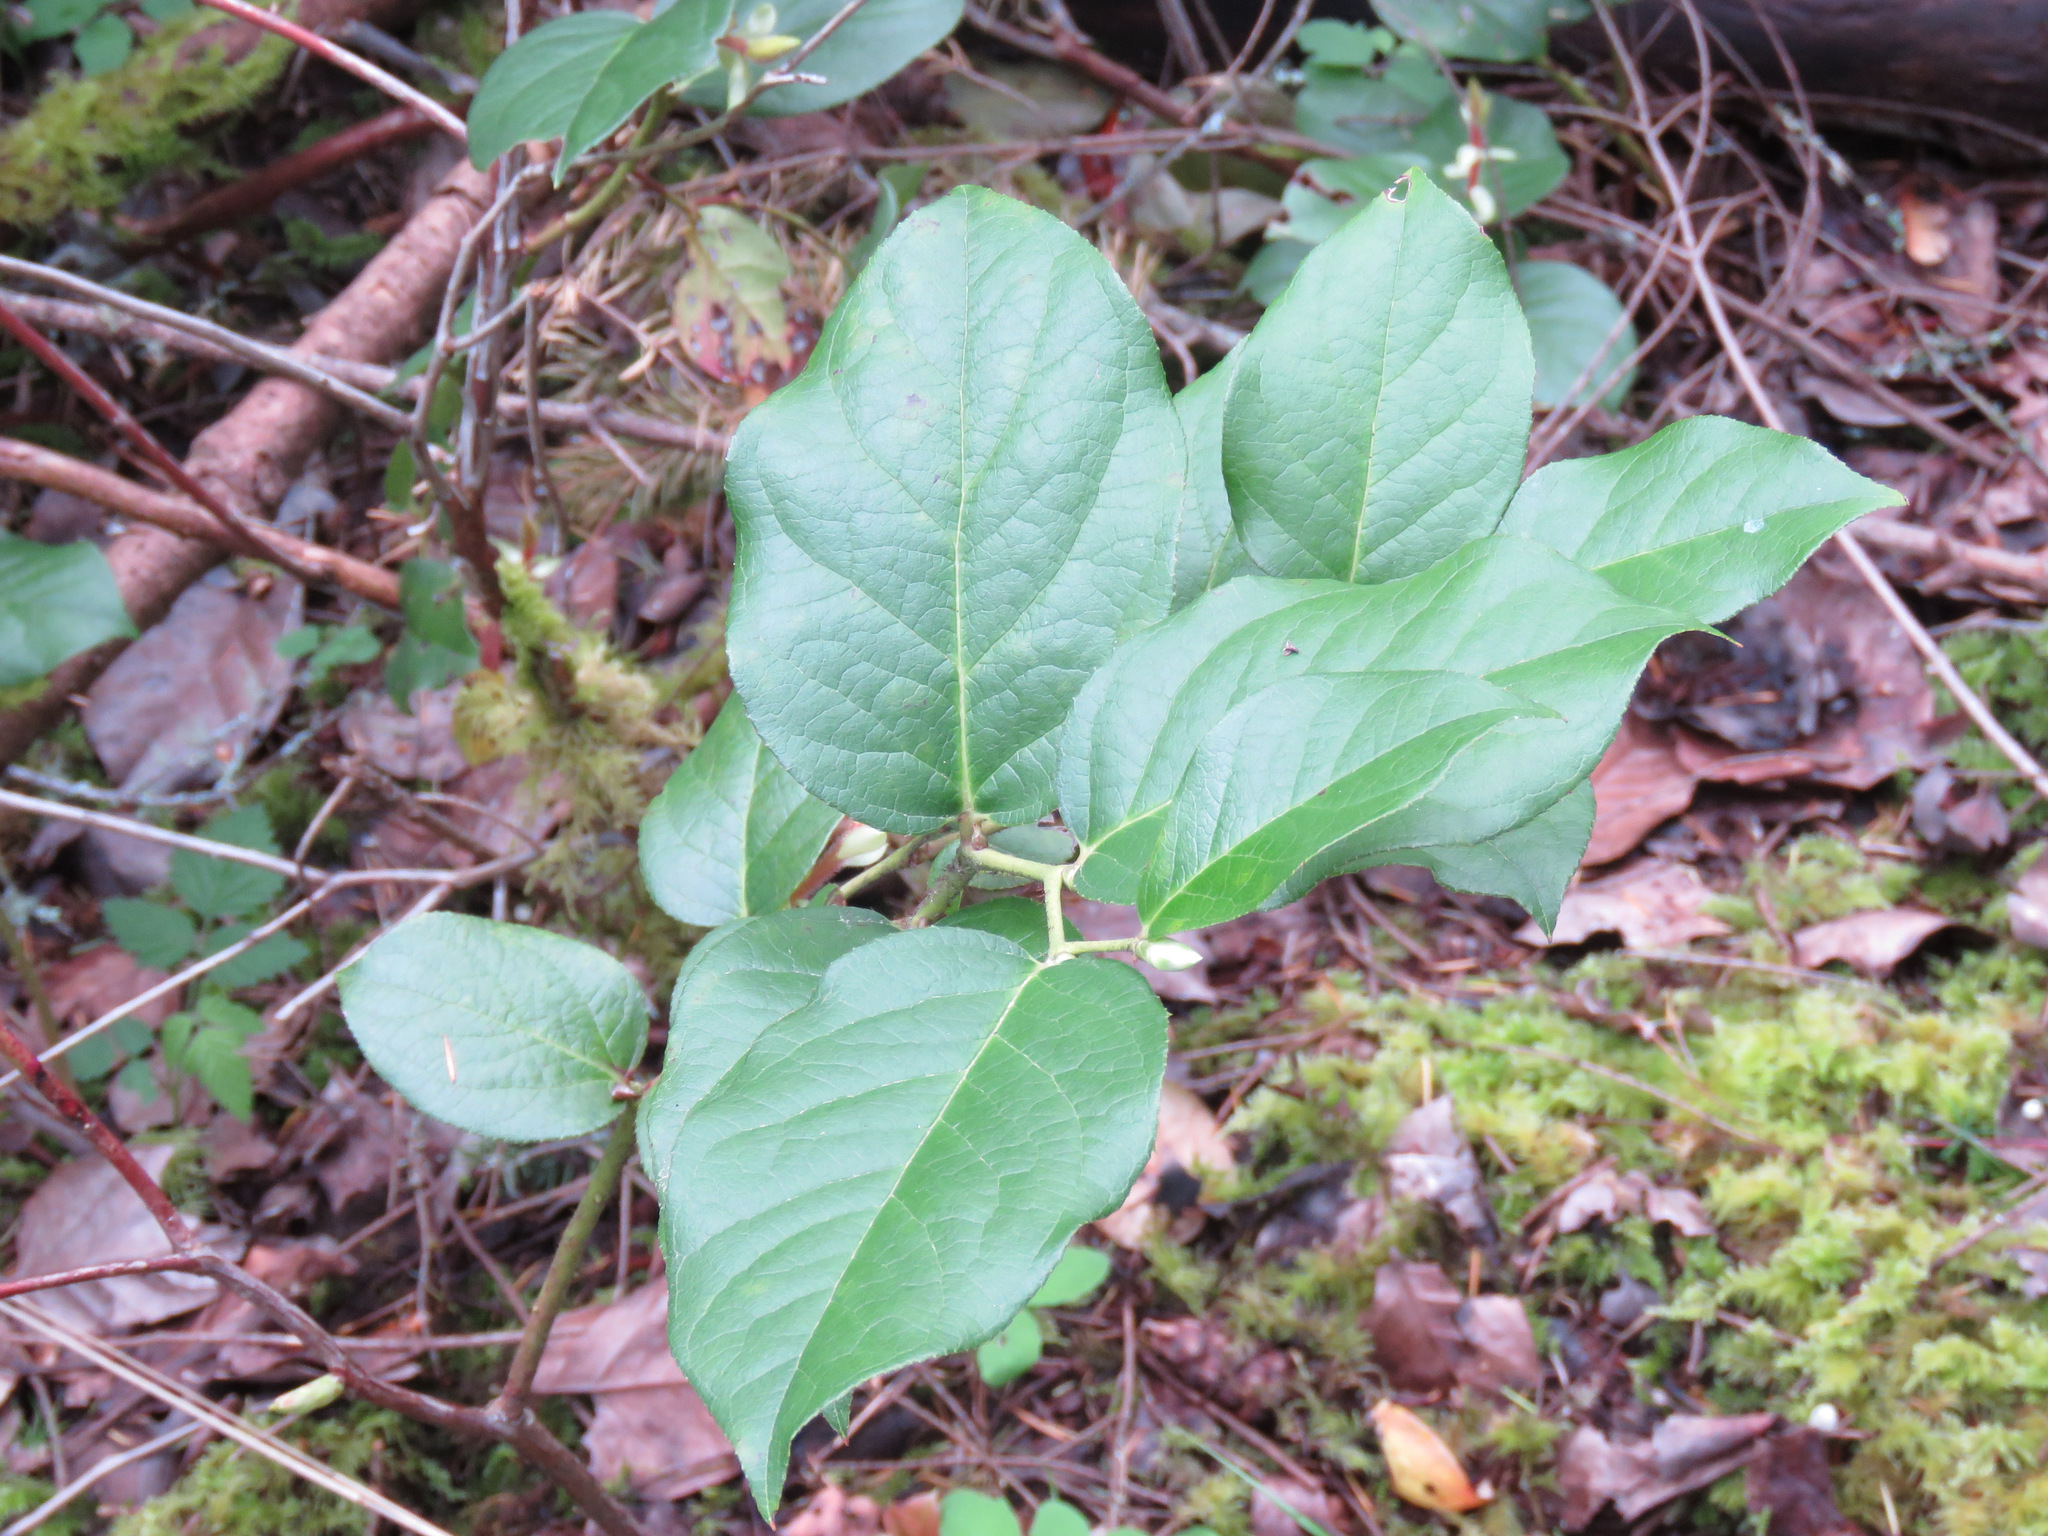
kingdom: Plantae
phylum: Tracheophyta
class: Magnoliopsida
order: Ericales
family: Ericaceae
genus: Gaultheria
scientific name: Gaultheria shallon
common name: Shallon
